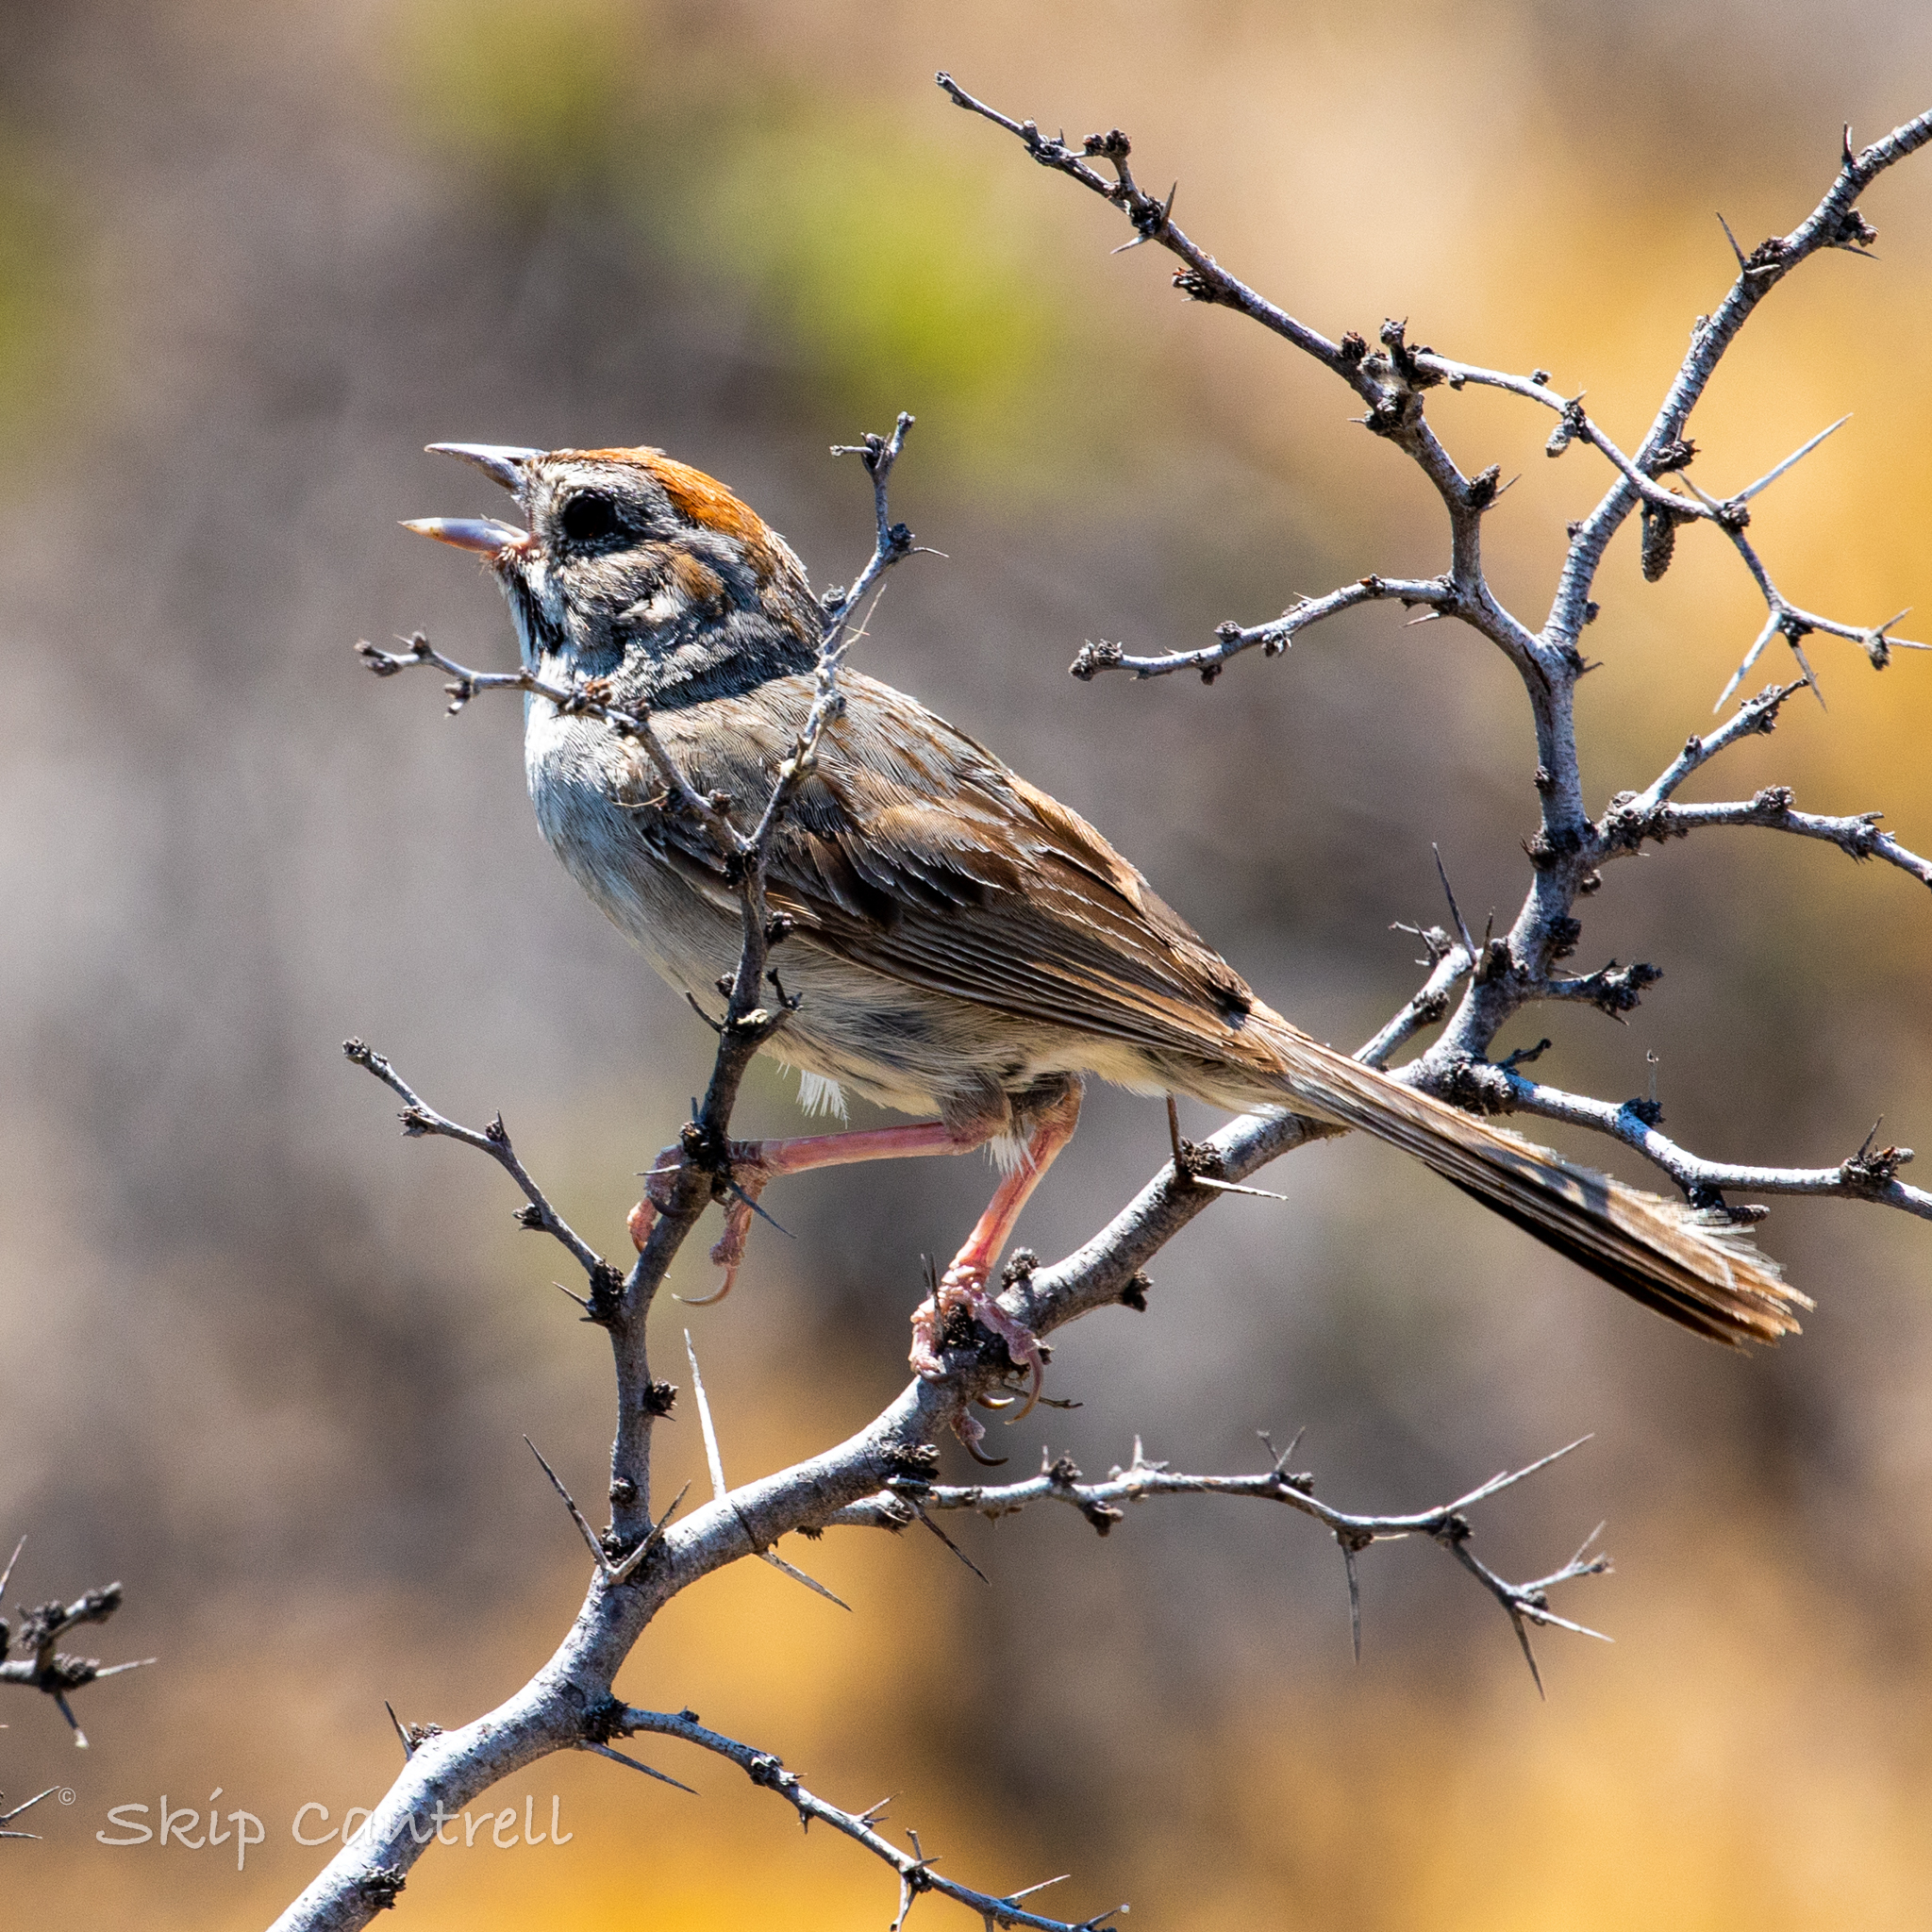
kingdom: Animalia
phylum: Chordata
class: Aves
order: Passeriformes
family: Passerellidae
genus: Aimophila
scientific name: Aimophila ruficeps
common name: Rufous-crowned sparrow
